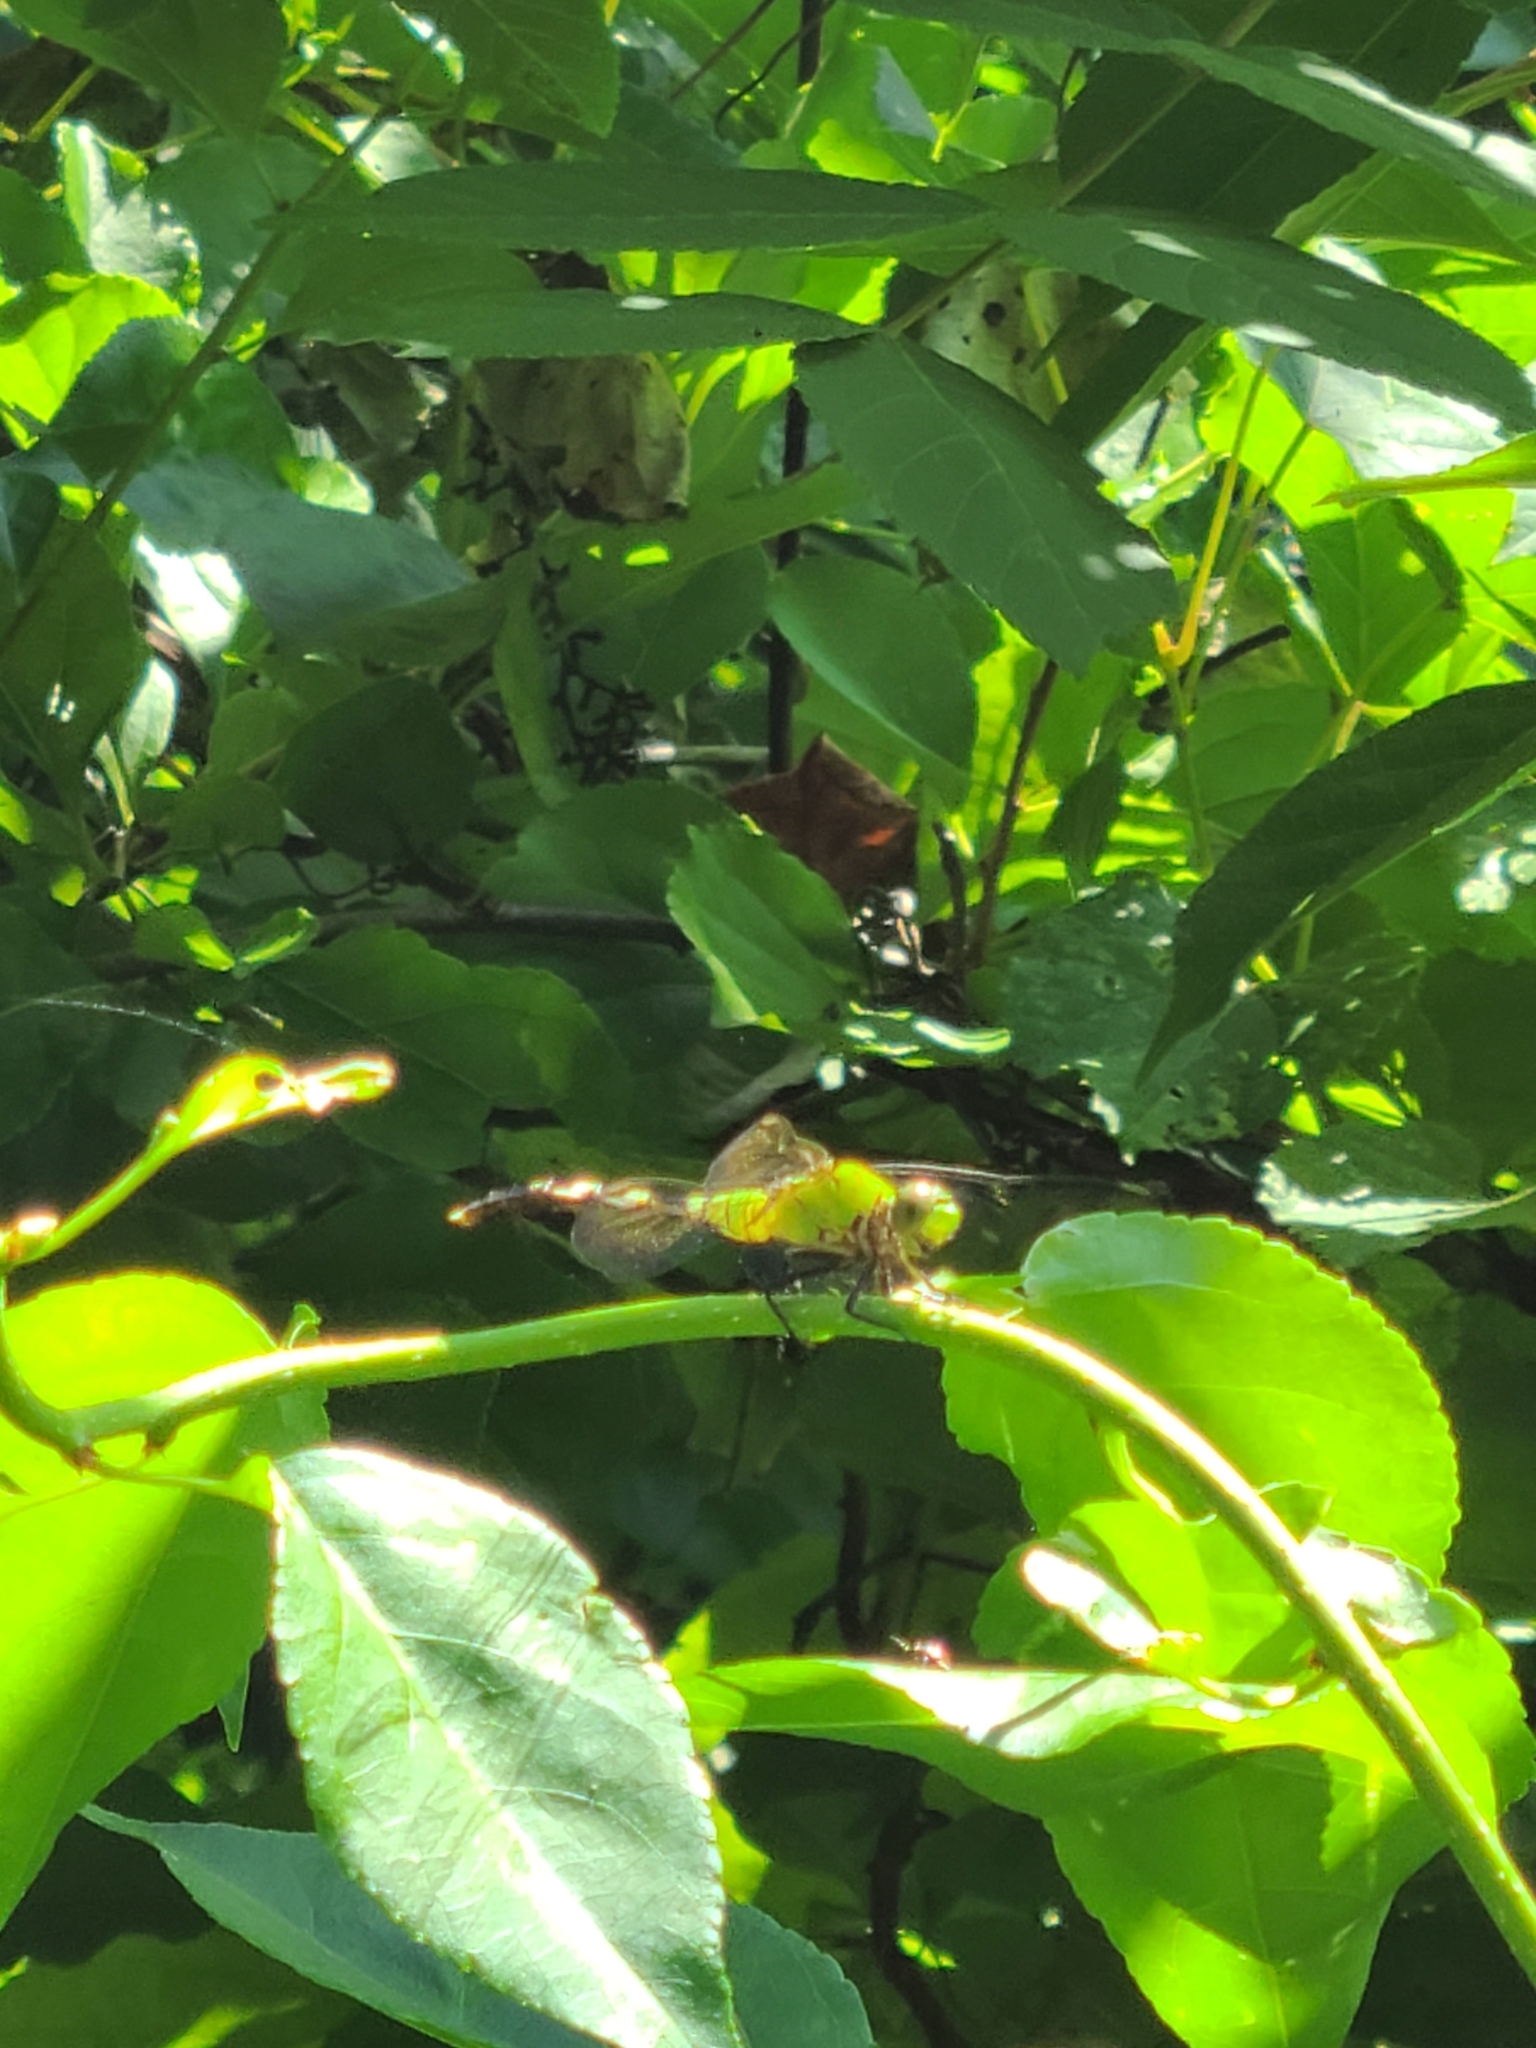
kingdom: Animalia
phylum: Arthropoda
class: Insecta
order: Odonata
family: Libellulidae
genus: Erythemis
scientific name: Erythemis simplicicollis
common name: Eastern pondhawk
